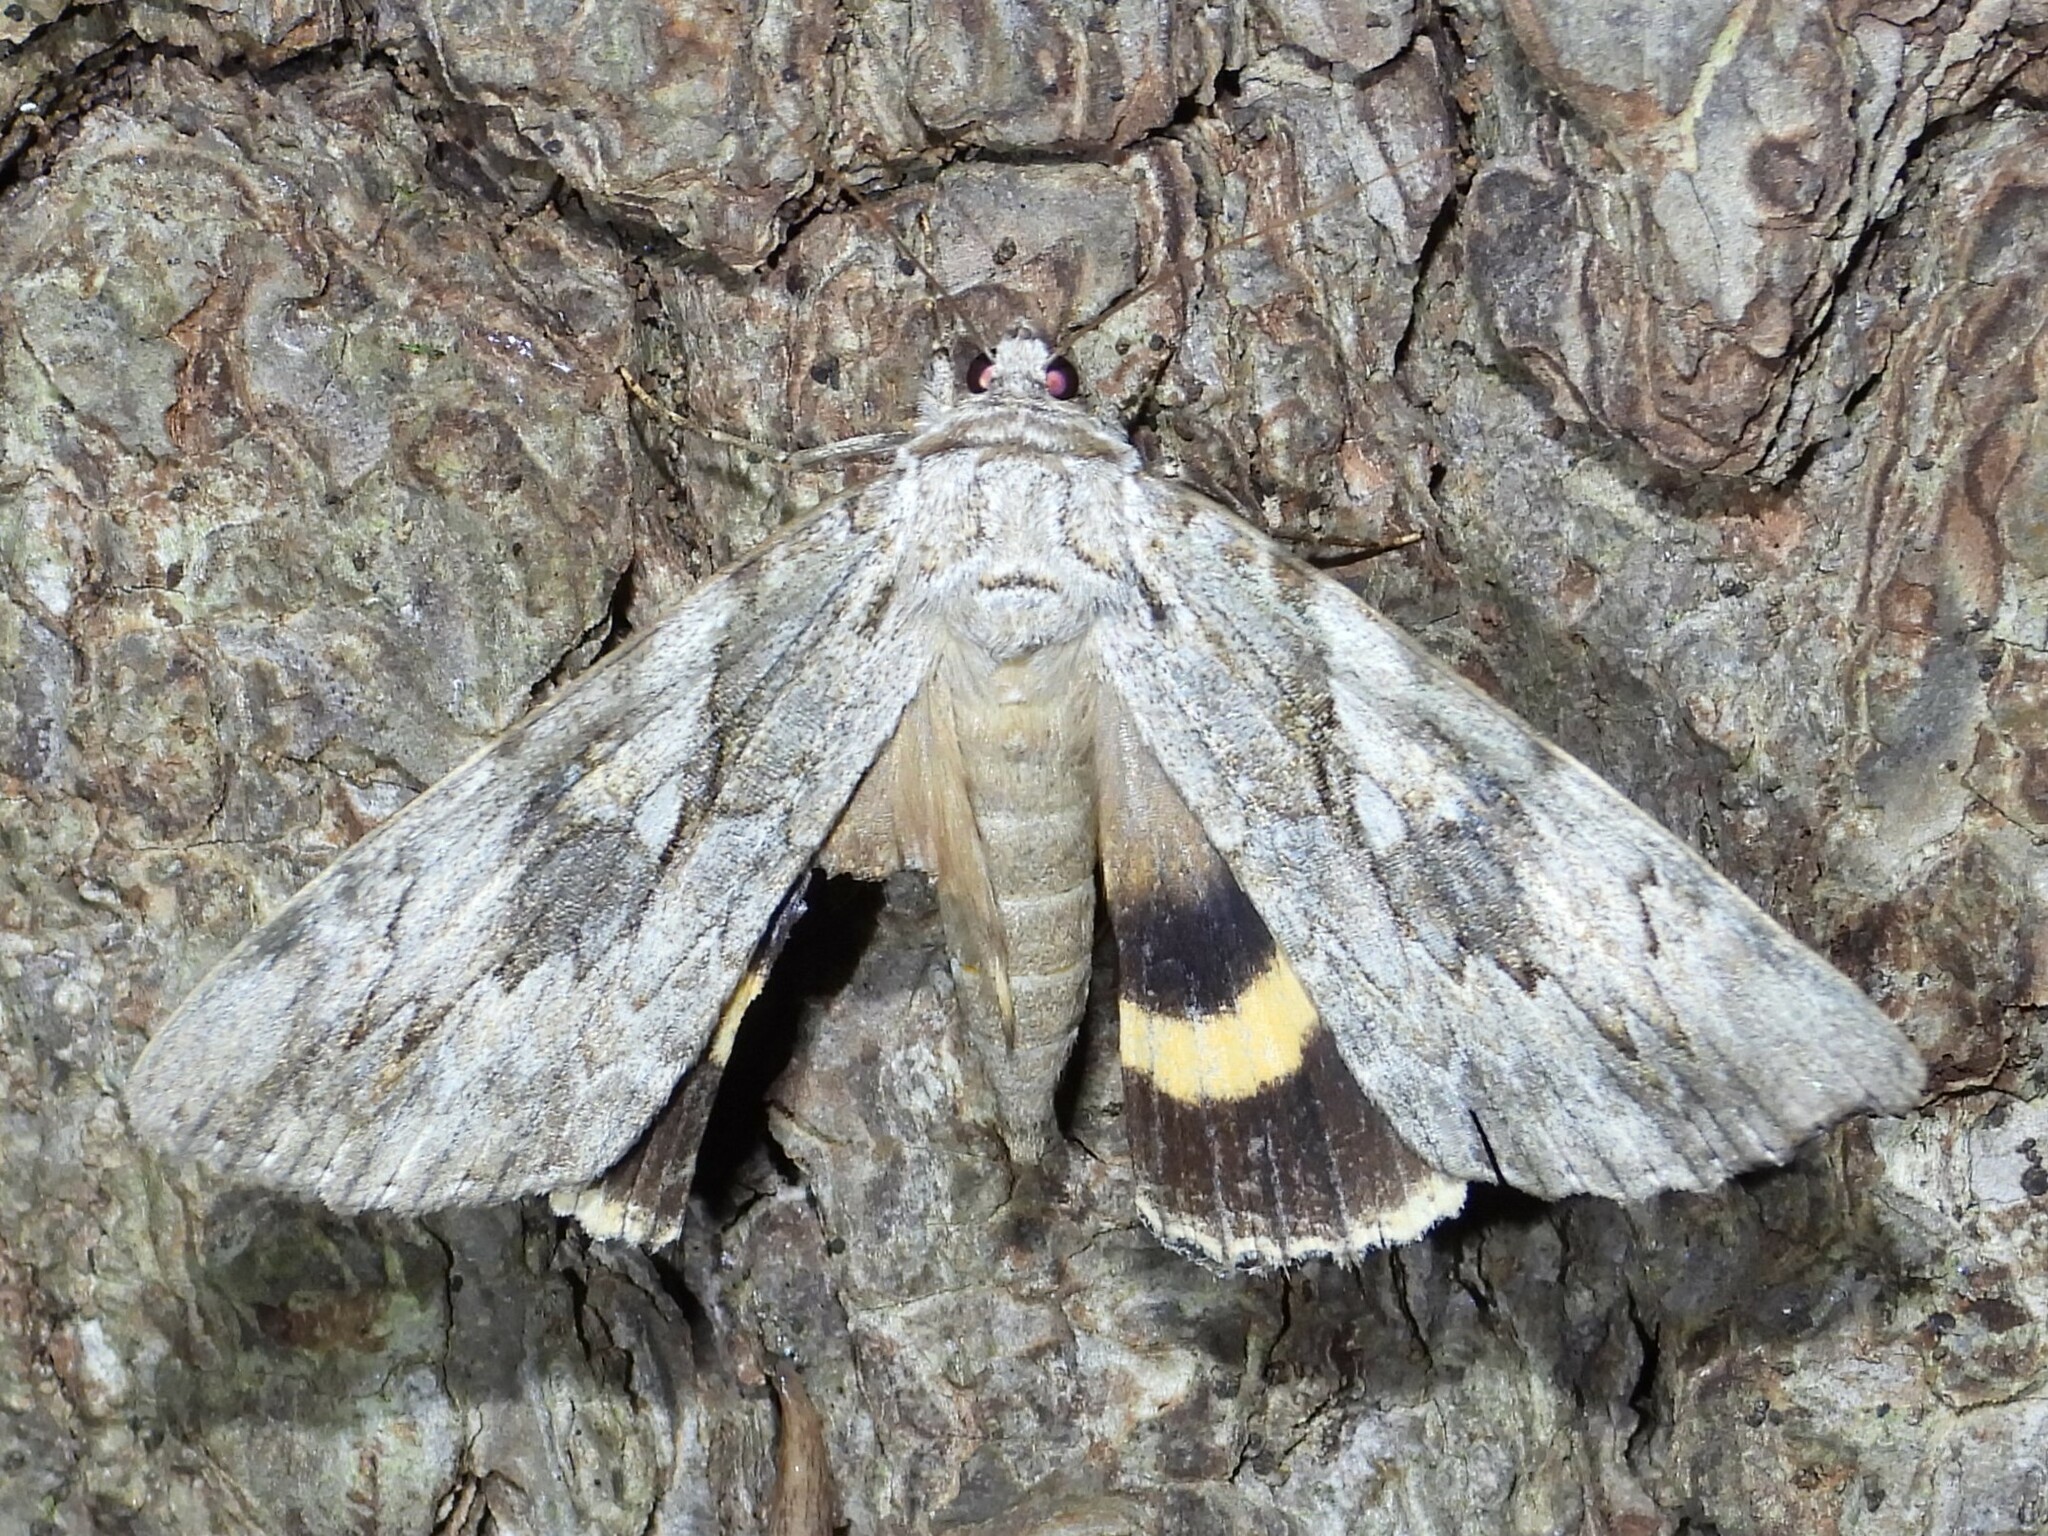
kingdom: Animalia
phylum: Arthropoda
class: Insecta
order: Lepidoptera
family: Erebidae
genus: Catocala
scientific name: Catocala cerogama
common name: Yellow banded underwing
